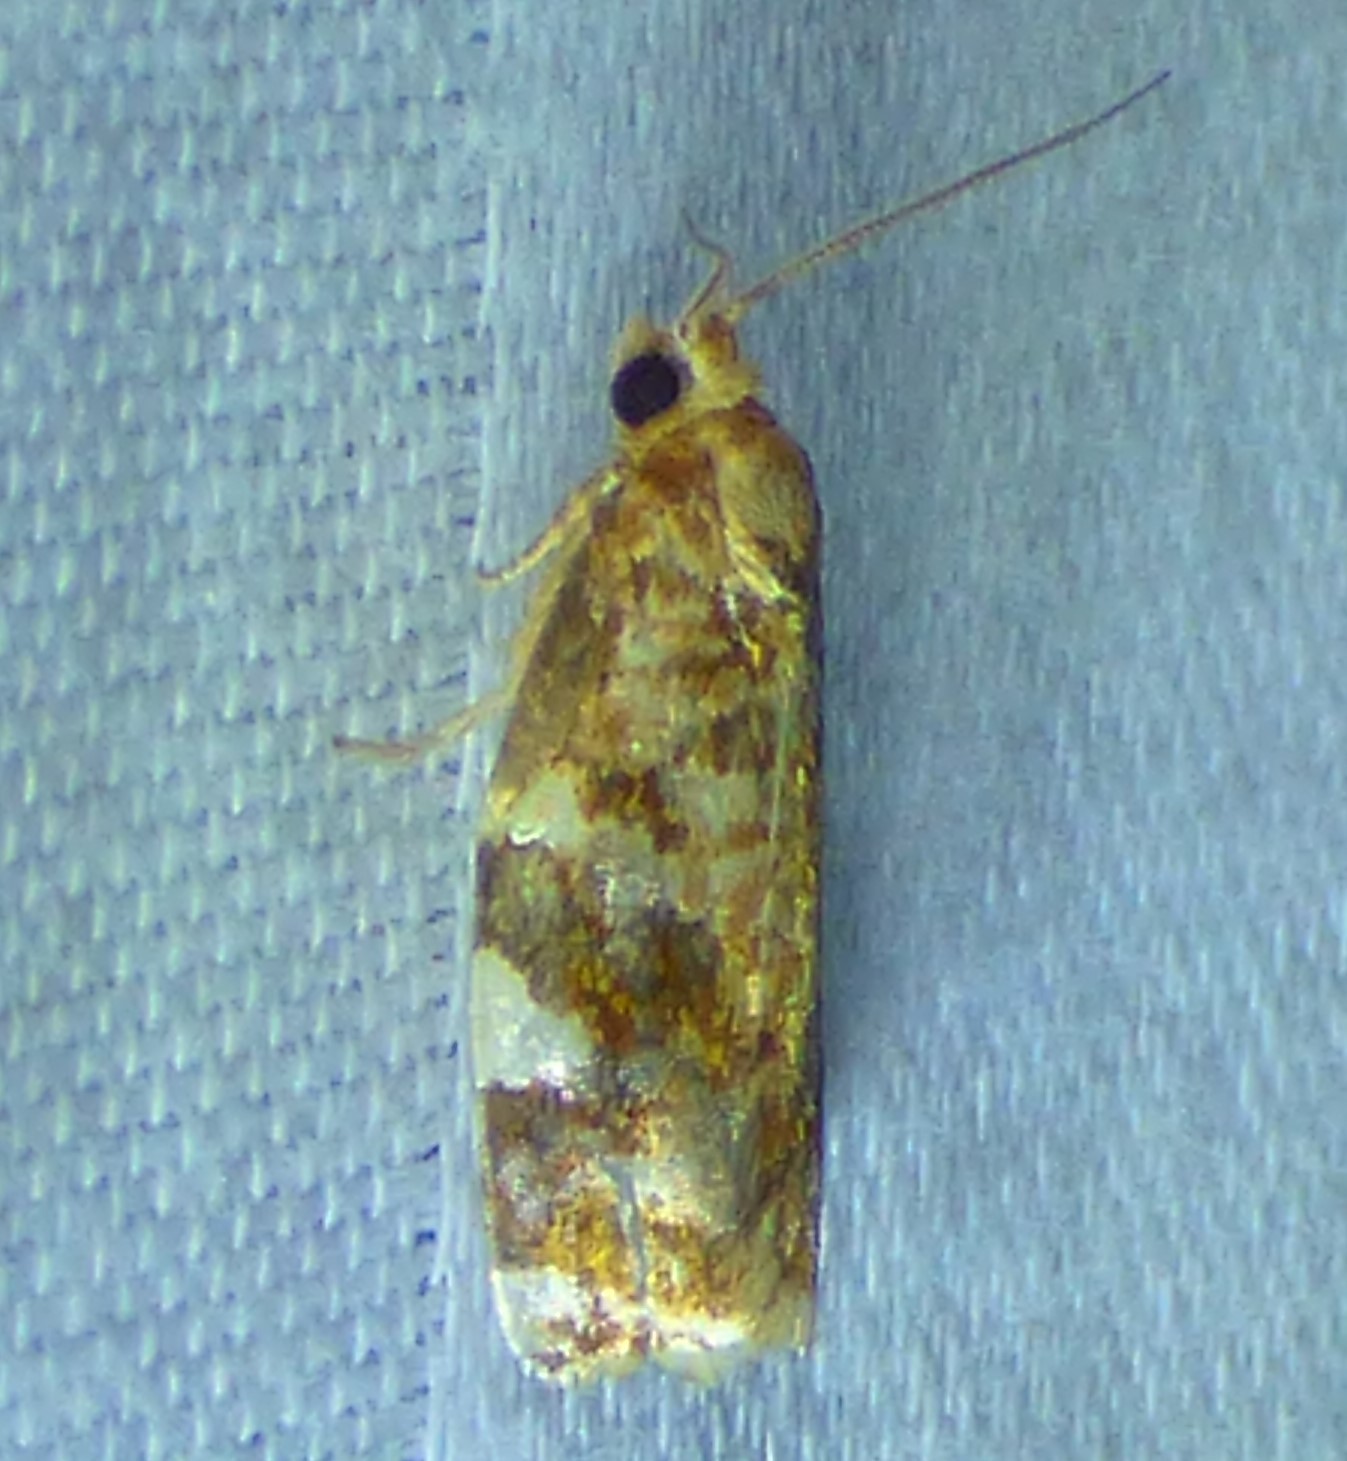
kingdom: Animalia
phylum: Arthropoda
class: Insecta
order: Lepidoptera
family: Tortricidae
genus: Archips
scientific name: Archips argyrospila
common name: Fruit-tree leafroller moth
